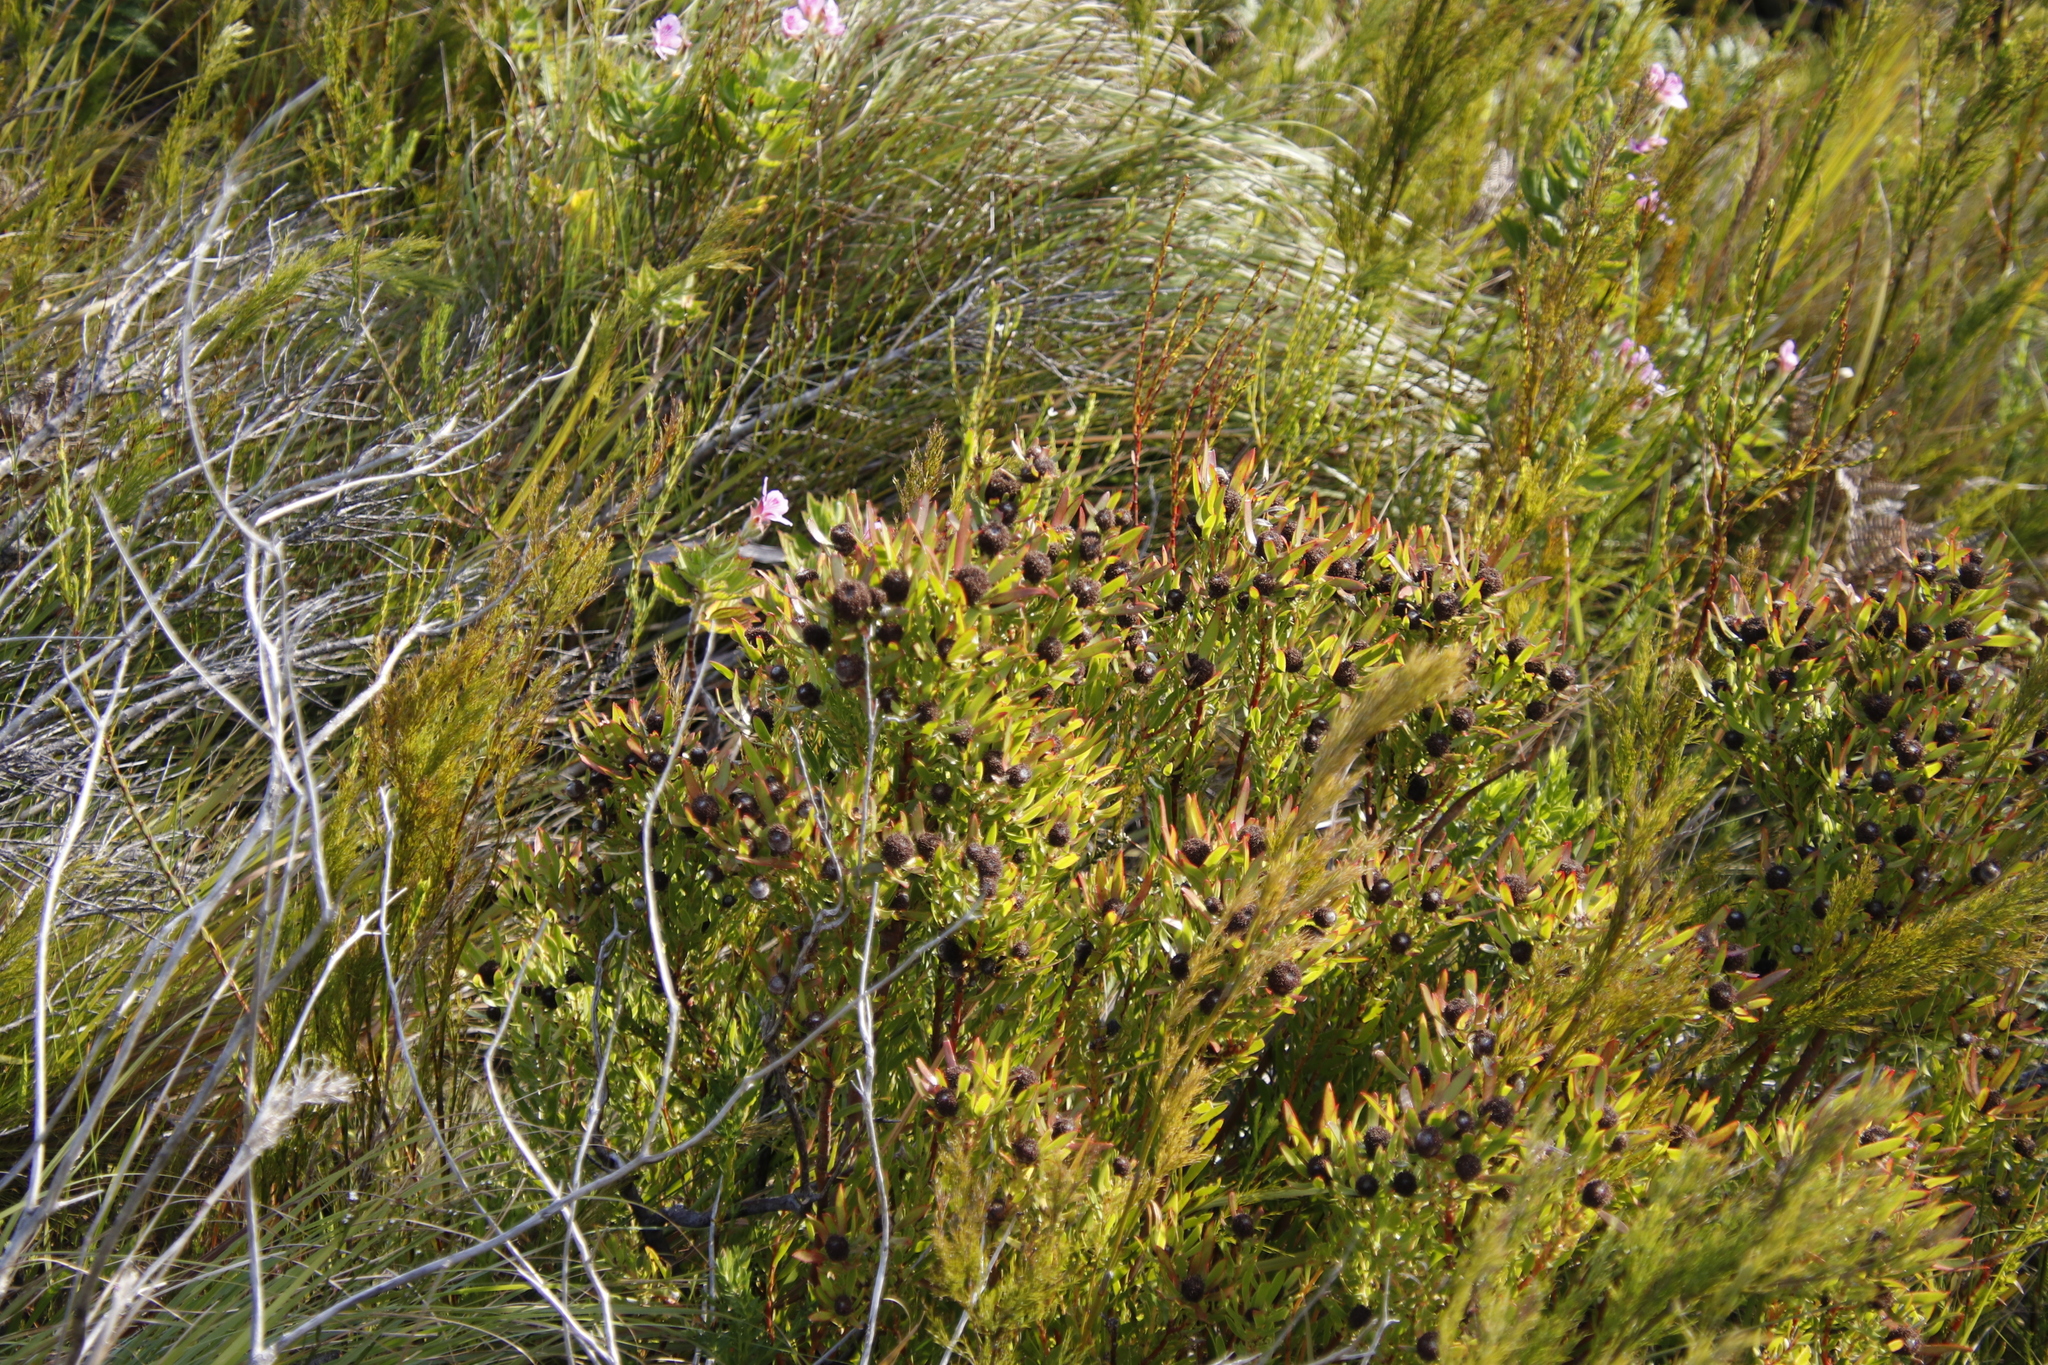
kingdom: Plantae
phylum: Tracheophyta
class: Magnoliopsida
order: Proteales
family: Proteaceae
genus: Leucadendron
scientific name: Leucadendron spissifolium
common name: Spear-leaf conebush
